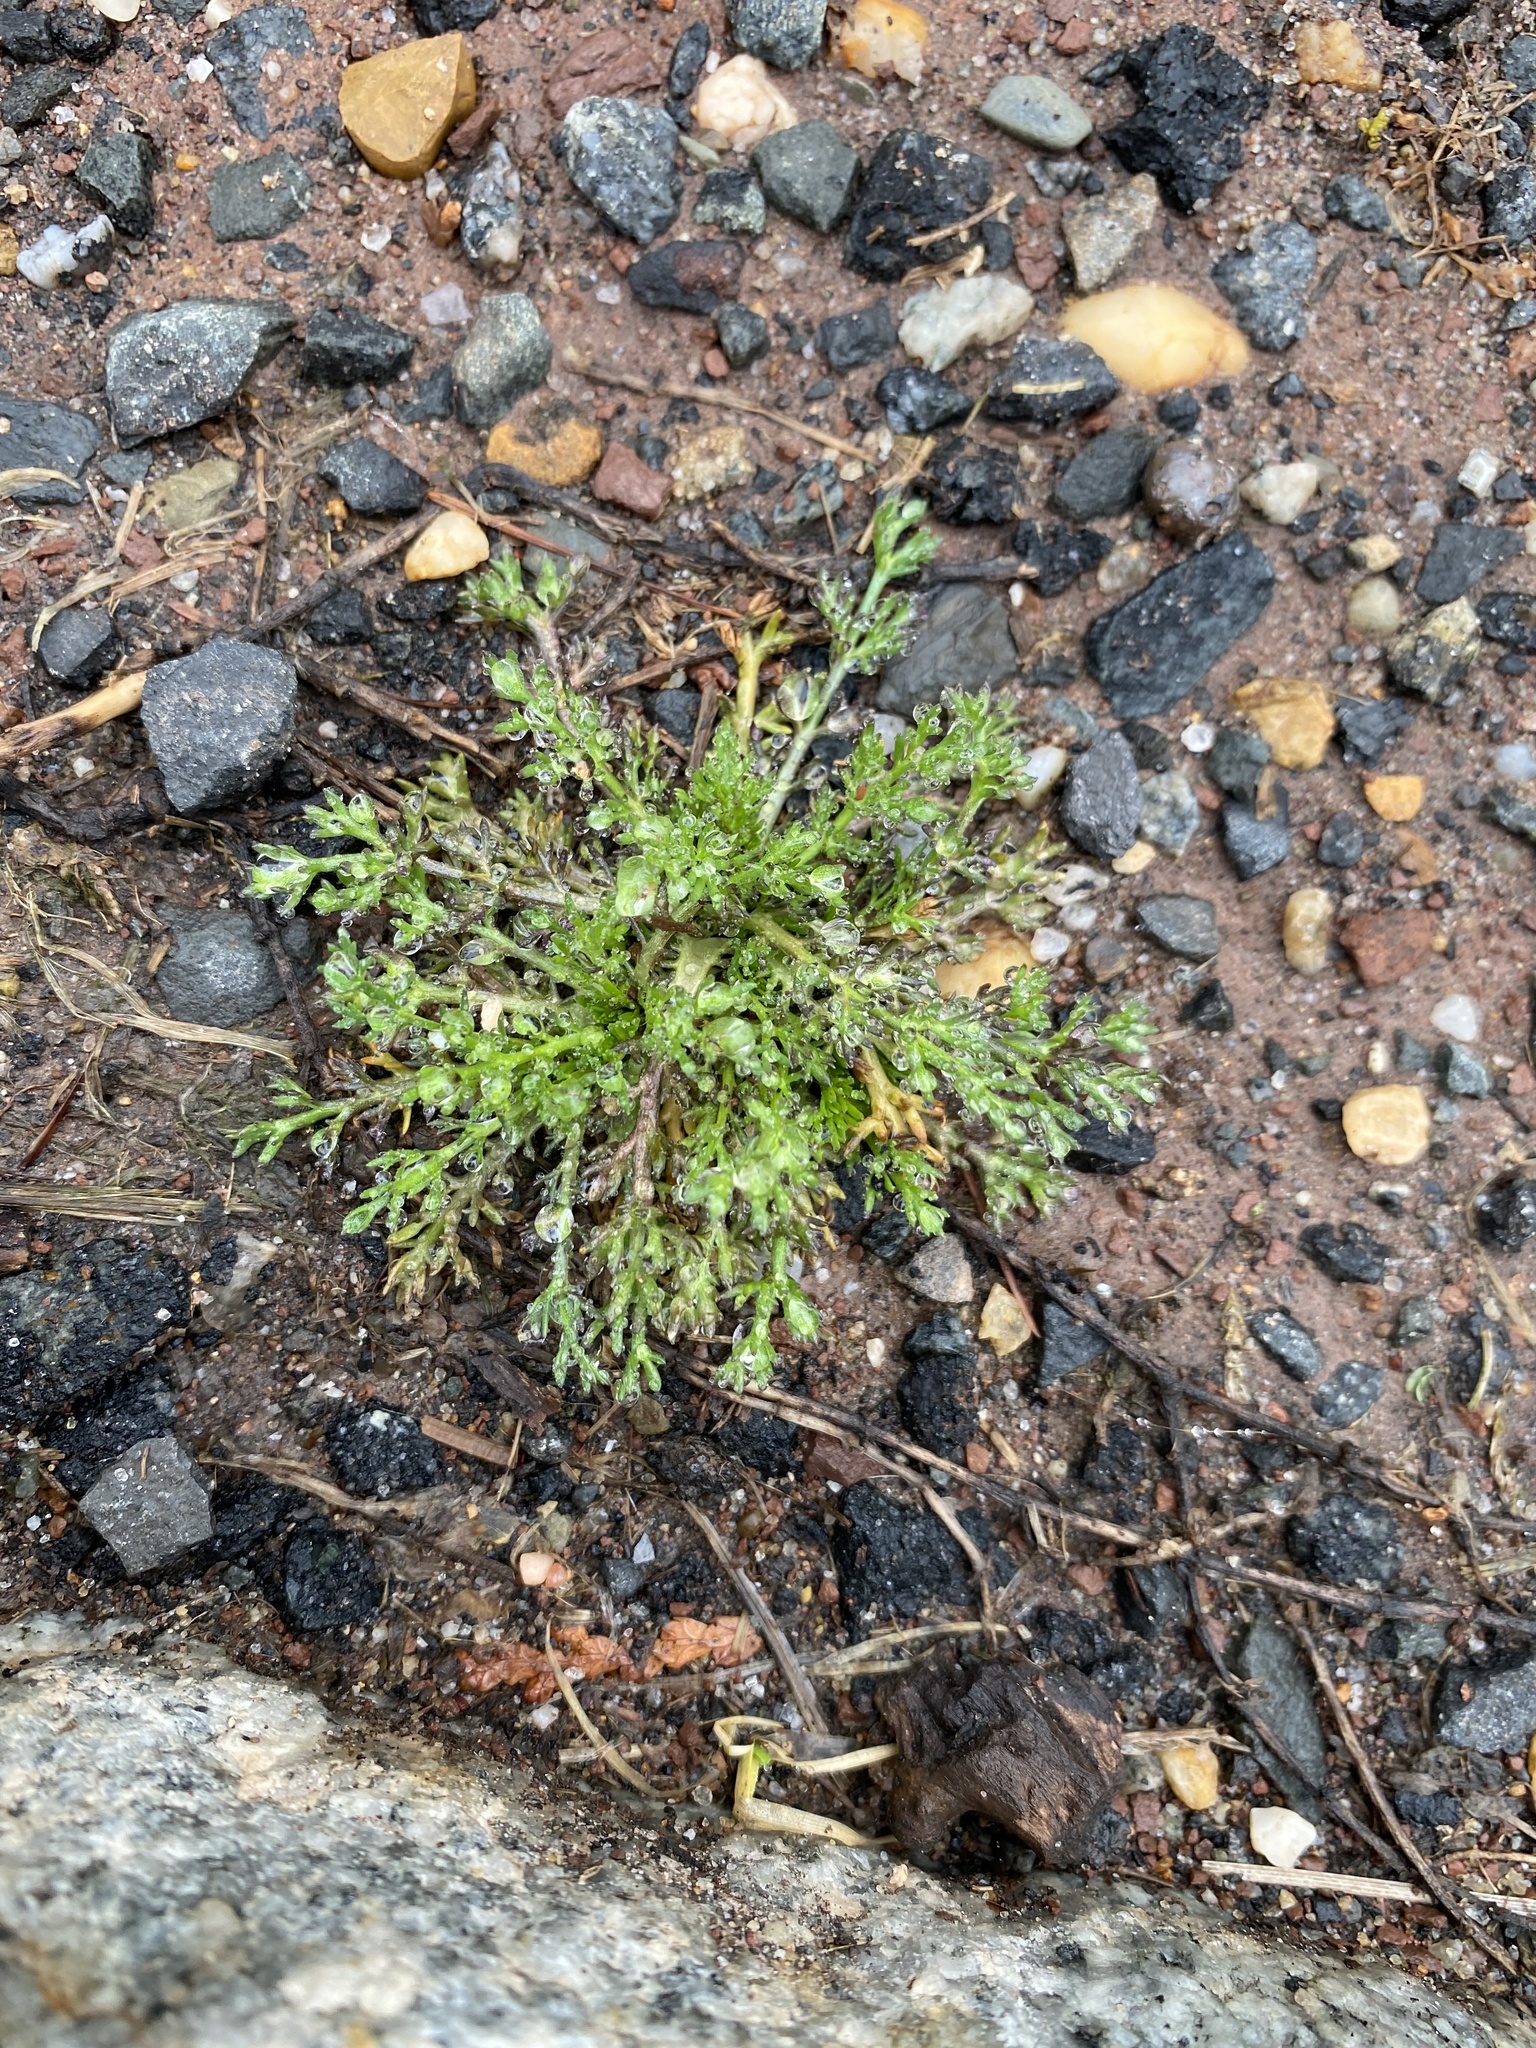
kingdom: Plantae
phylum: Tracheophyta
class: Magnoliopsida
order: Asterales
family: Asteraceae
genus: Matricaria
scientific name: Matricaria discoidea
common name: Disc mayweed
